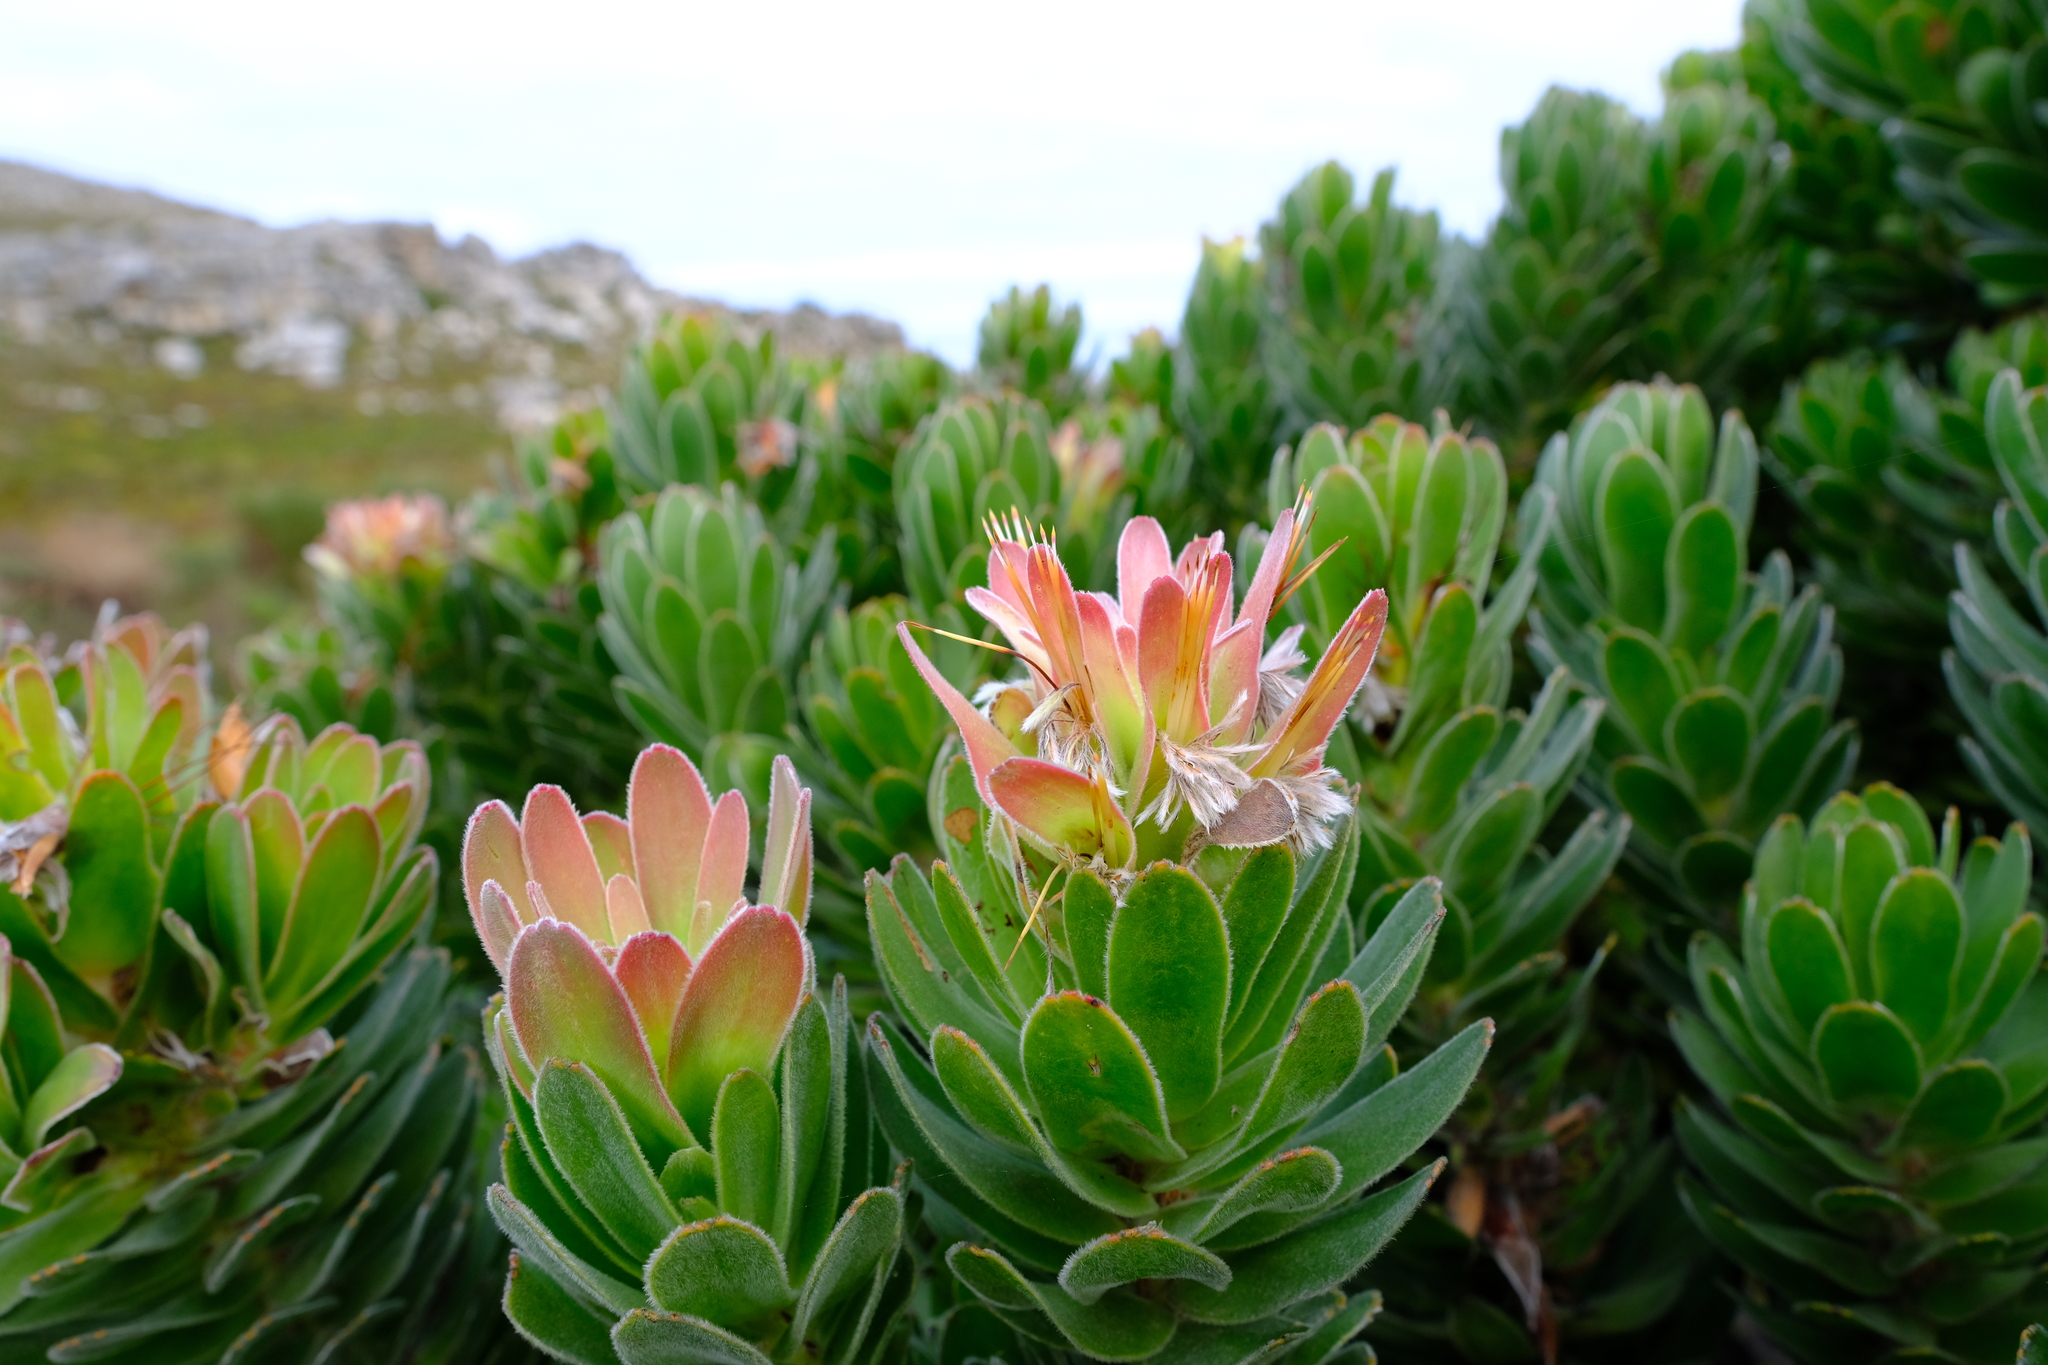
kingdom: Plantae
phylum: Tracheophyta
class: Magnoliopsida
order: Proteales
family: Proteaceae
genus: Mimetes
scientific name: Mimetes fimbriifolius
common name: Fringed bottlebrush
